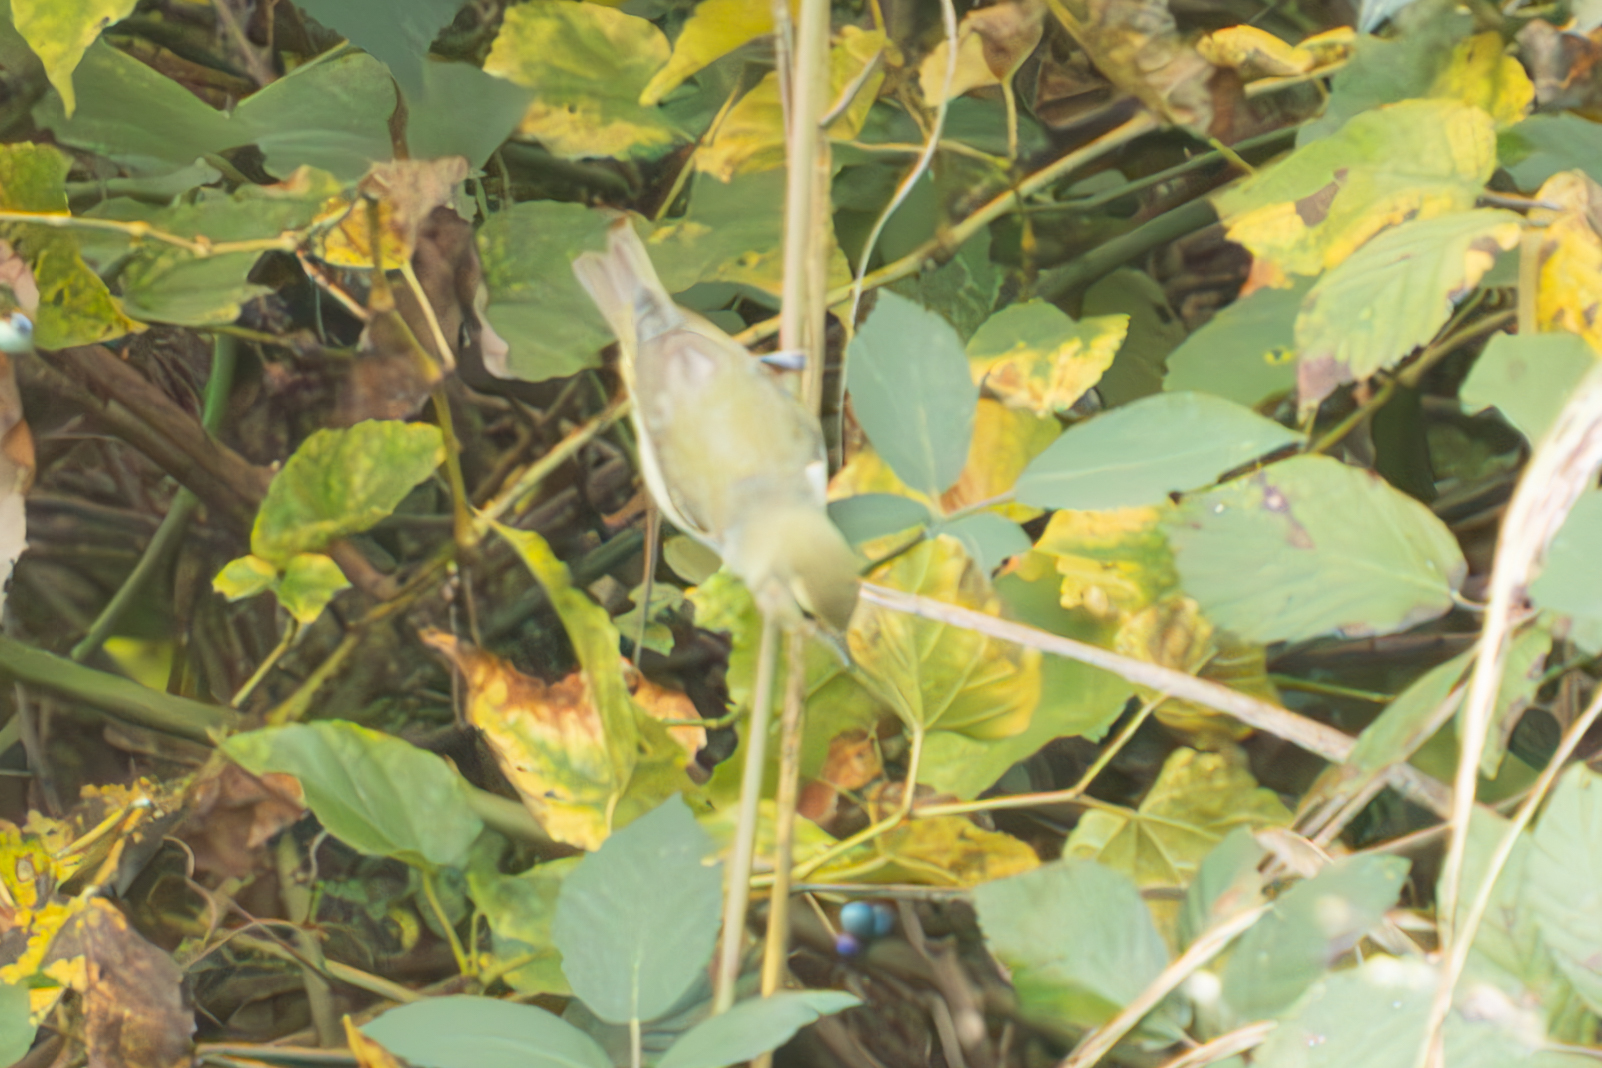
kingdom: Animalia
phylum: Chordata
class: Aves
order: Passeriformes
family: Parulidae
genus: Leiothlypis
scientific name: Leiothlypis peregrina
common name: Tennessee warbler
